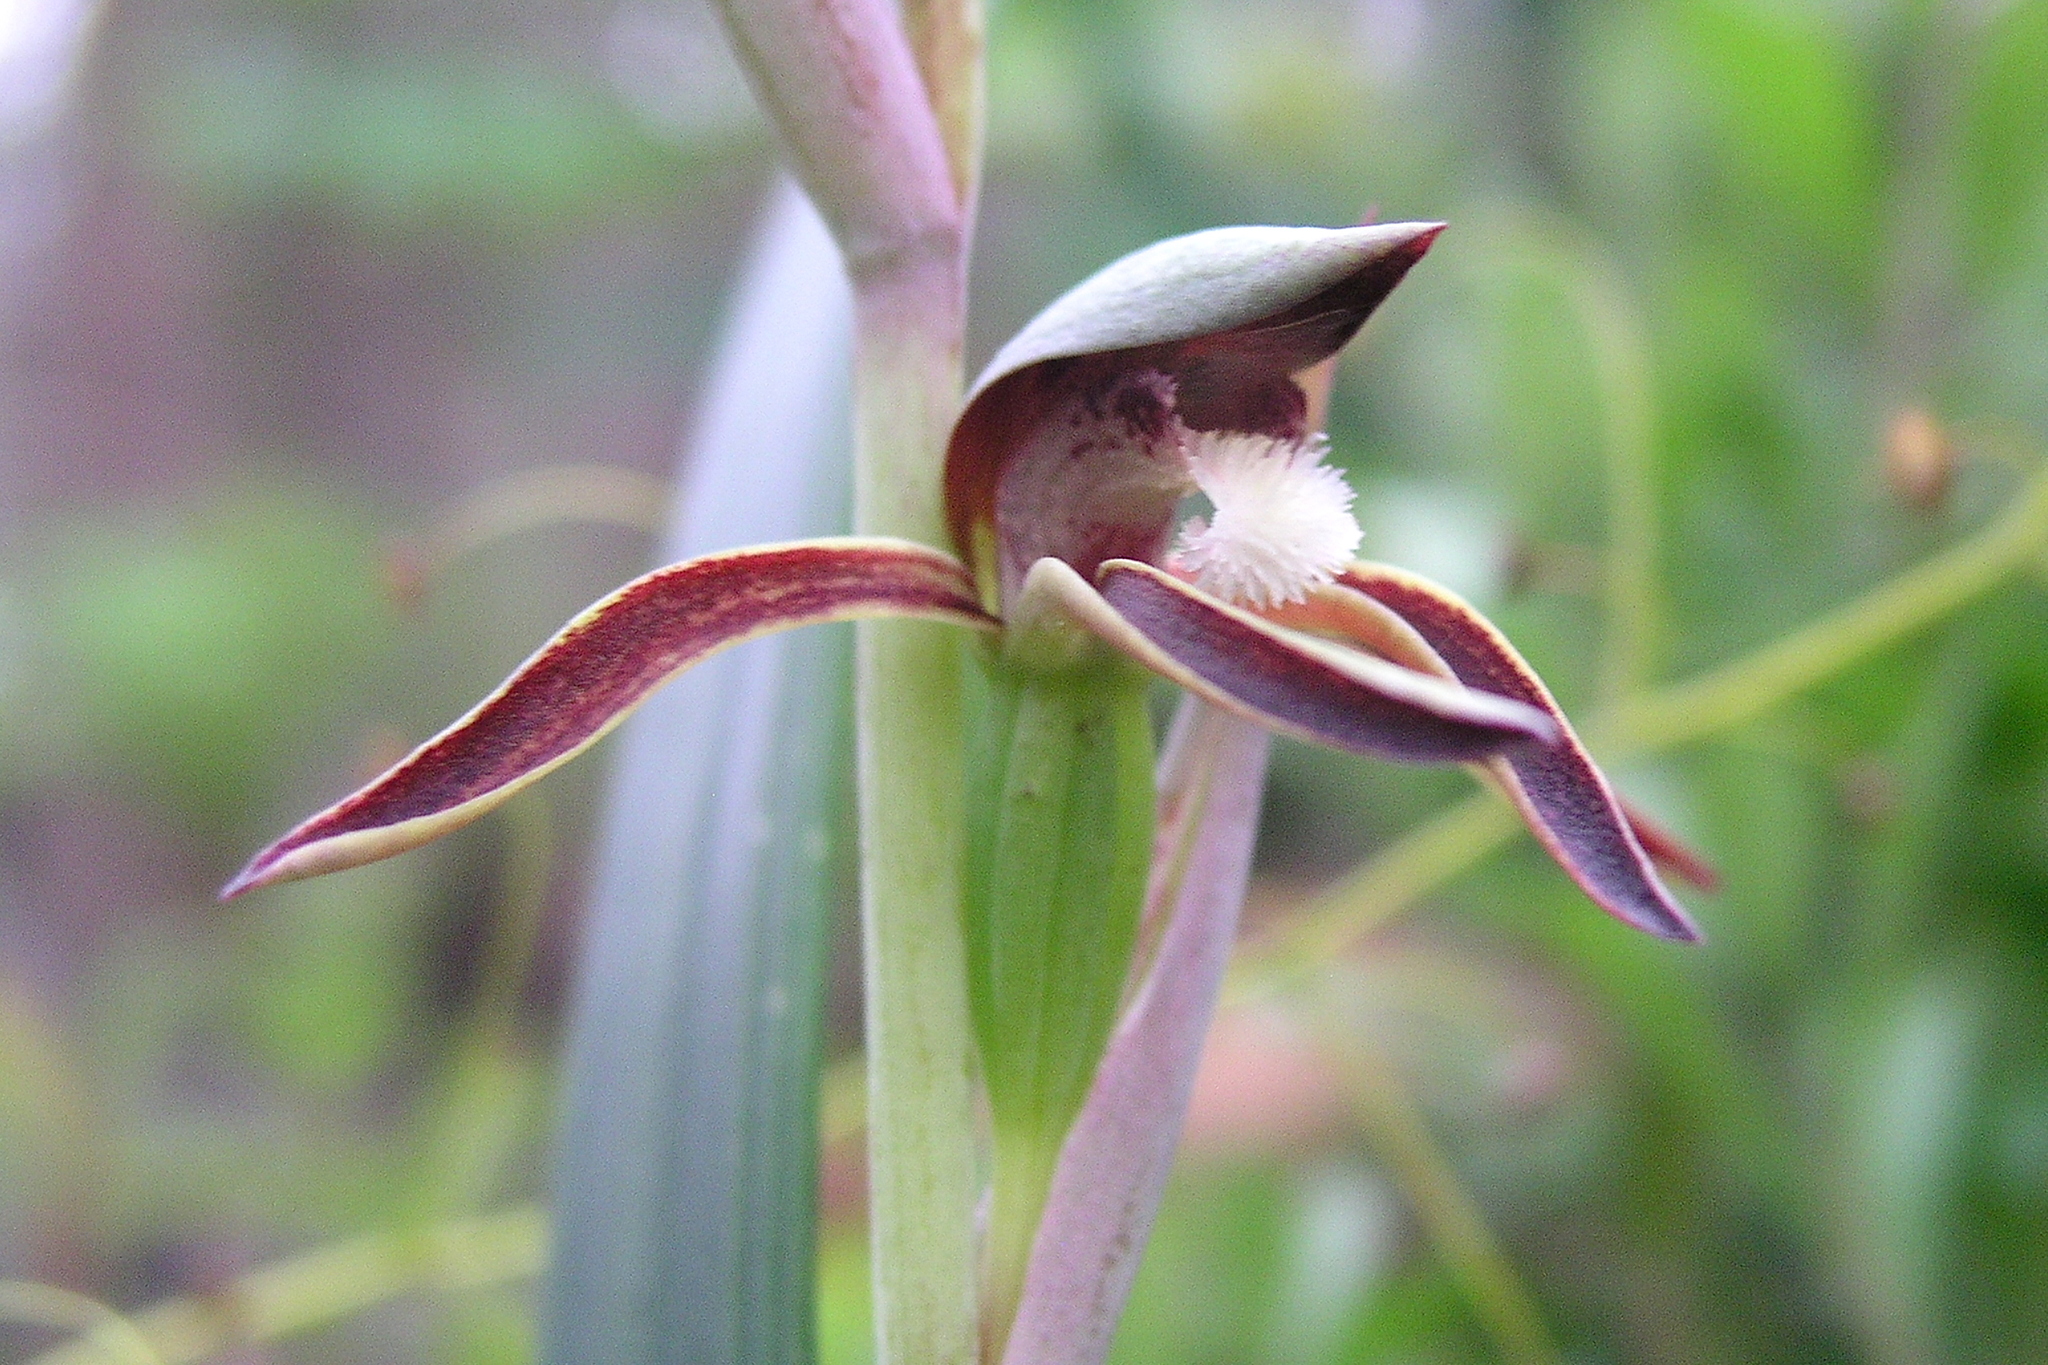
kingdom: Plantae
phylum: Tracheophyta
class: Liliopsida
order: Asparagales
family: Orchidaceae
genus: Lyperanthus
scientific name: Lyperanthus serratus
